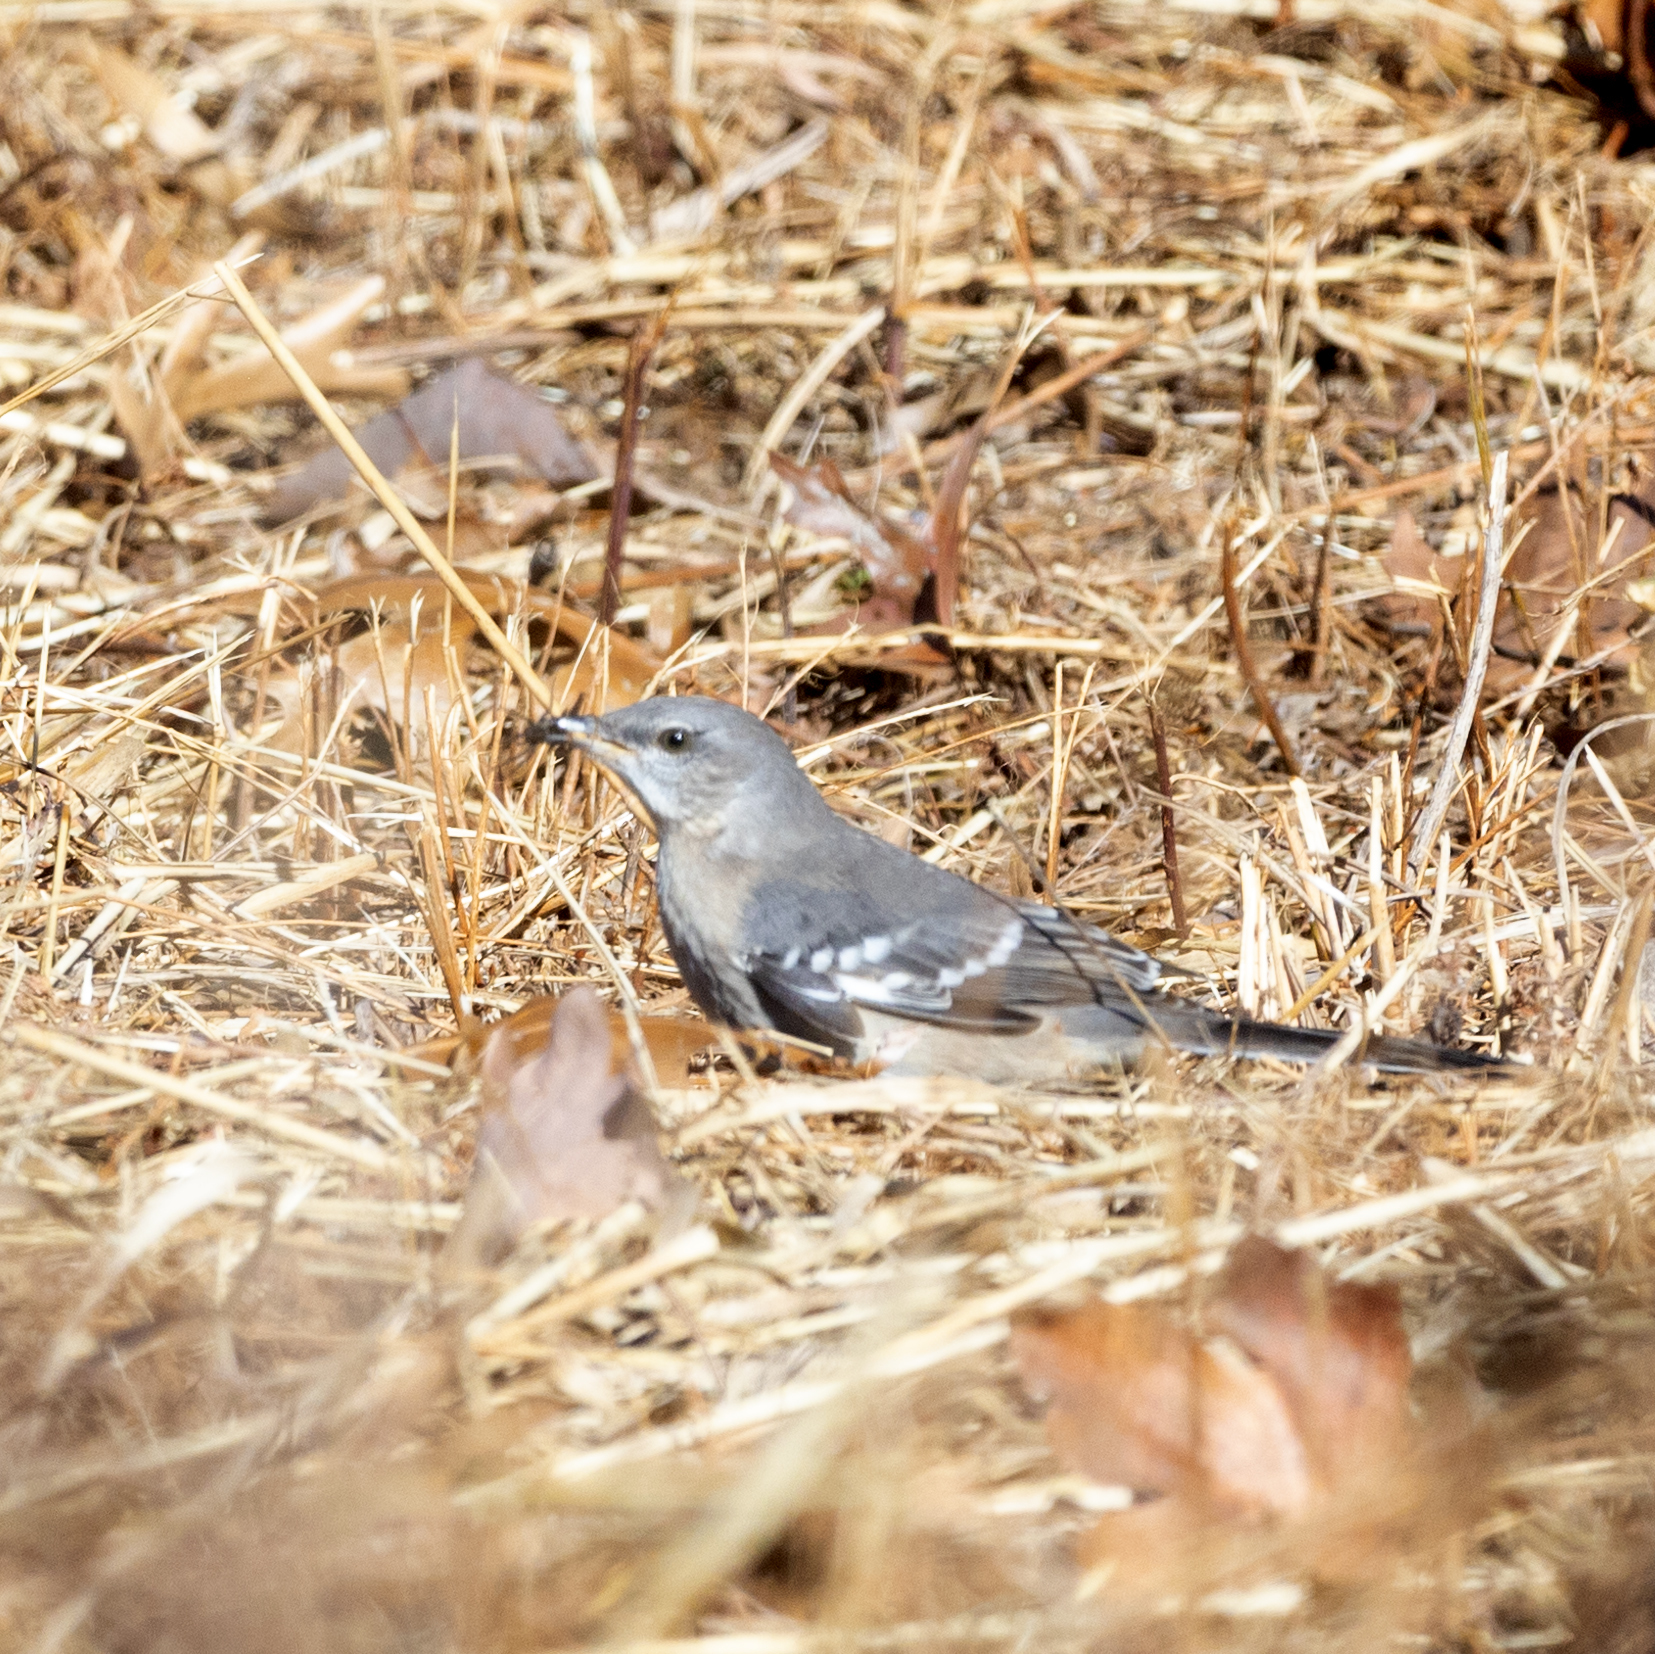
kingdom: Animalia
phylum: Chordata
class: Aves
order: Passeriformes
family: Mimidae
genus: Mimus
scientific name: Mimus polyglottos
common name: Northern mockingbird
